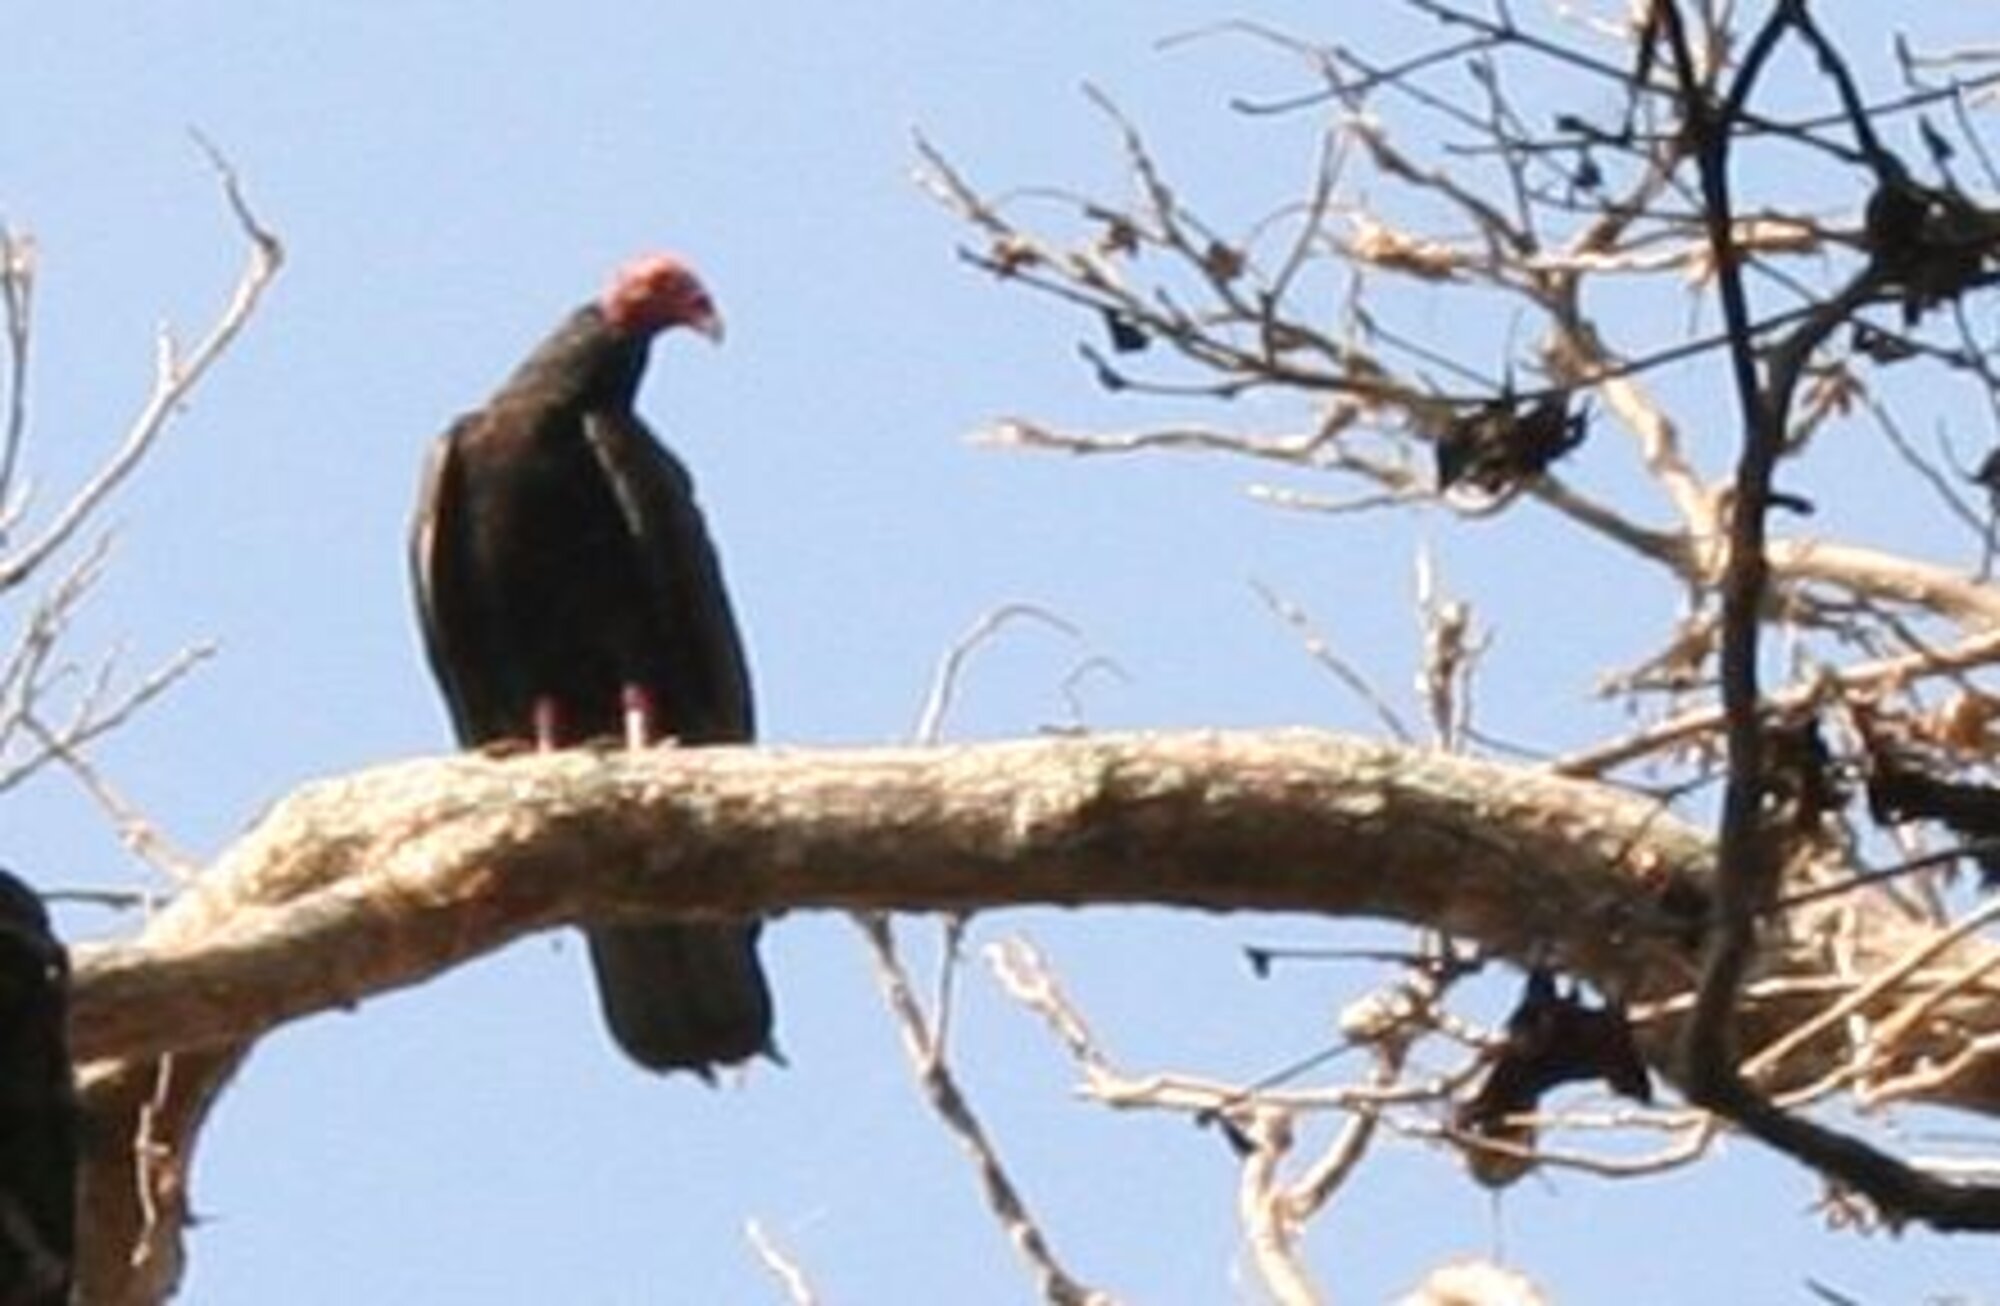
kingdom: Animalia
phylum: Chordata
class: Aves
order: Accipitriformes
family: Cathartidae
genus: Cathartes
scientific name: Cathartes aura
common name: Turkey vulture
